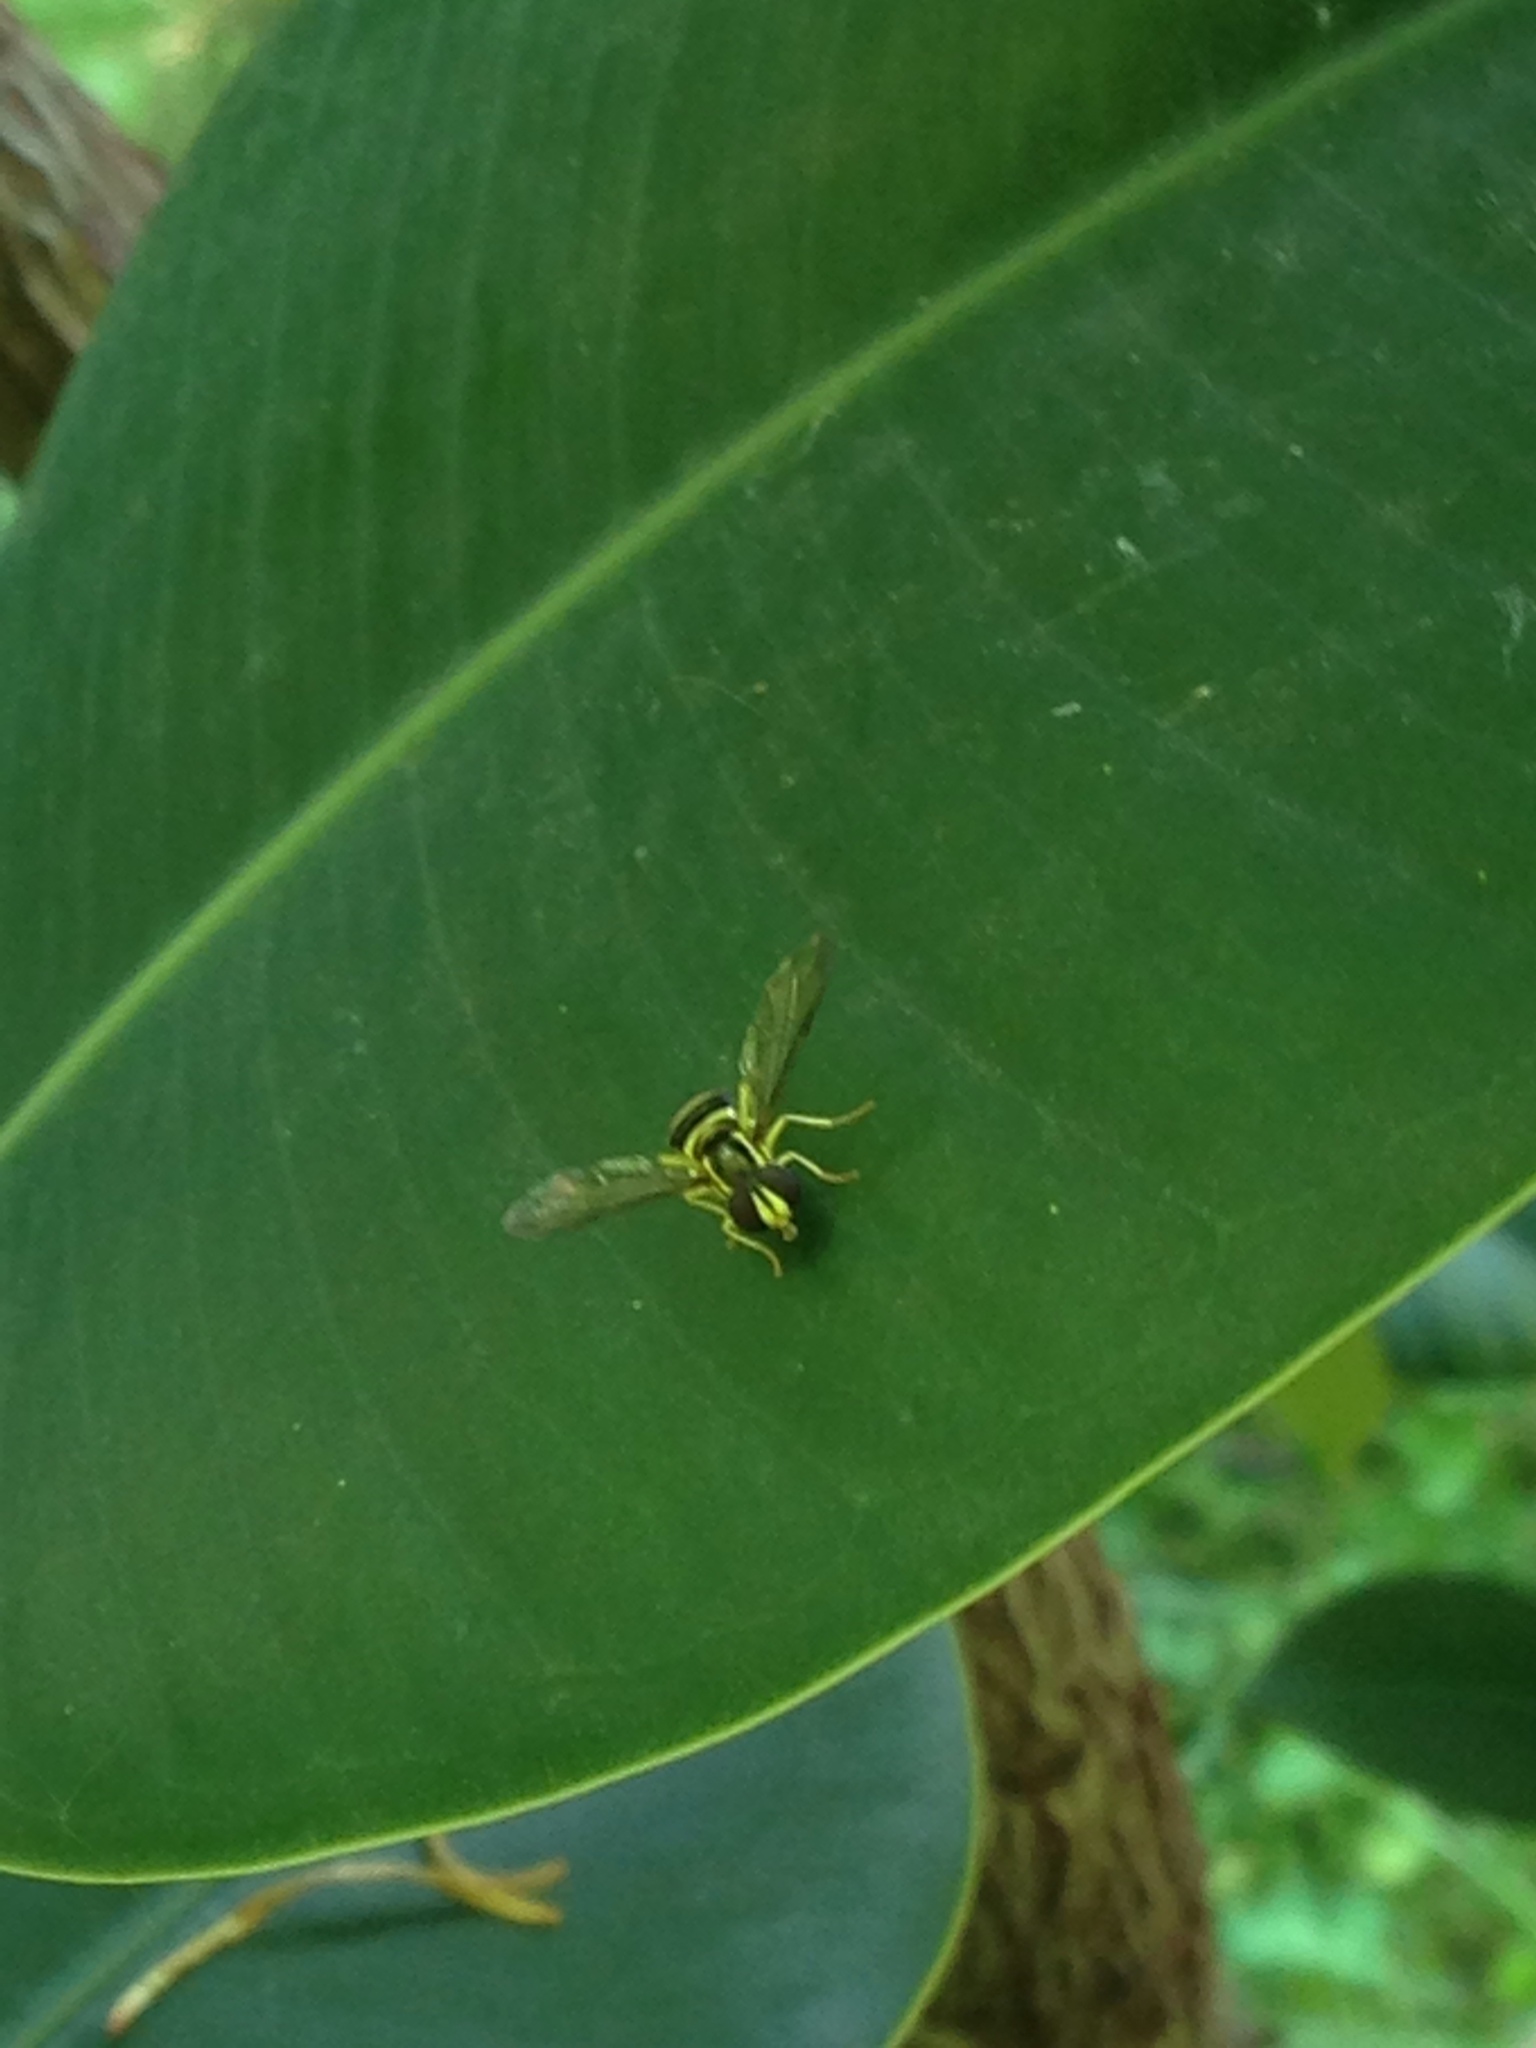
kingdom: Animalia
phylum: Arthropoda
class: Insecta
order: Diptera
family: Syrphidae
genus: Philhelius
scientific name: Philhelius flavipes
